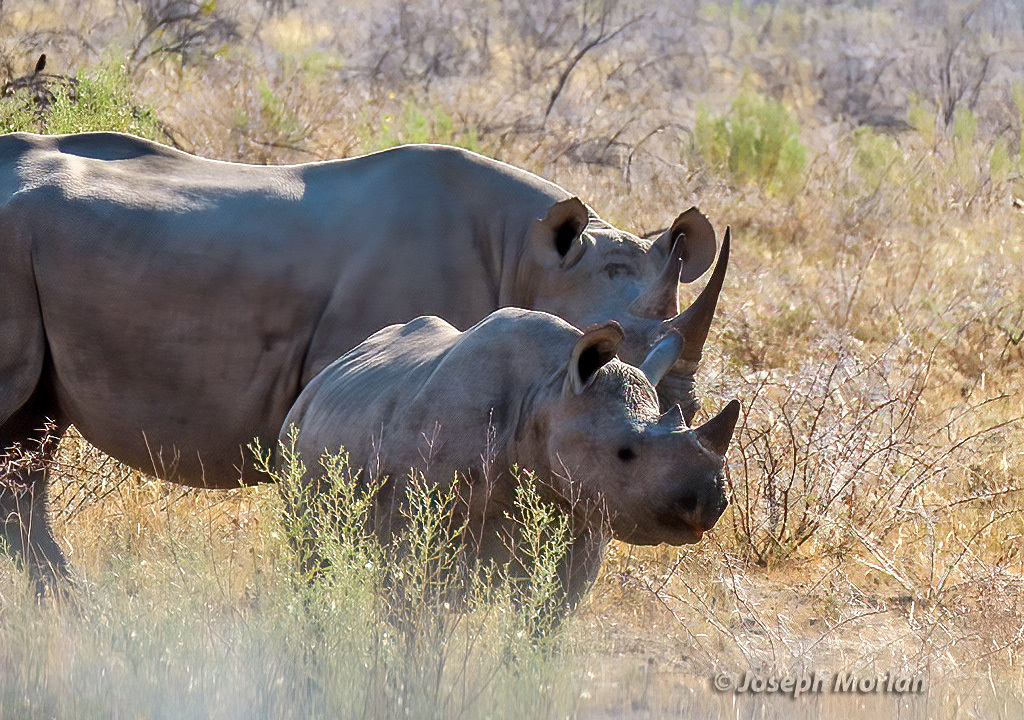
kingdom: Animalia
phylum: Chordata
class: Mammalia
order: Perissodactyla
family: Rhinocerotidae
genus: Diceros
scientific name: Diceros bicornis
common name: Black rhinoceros
